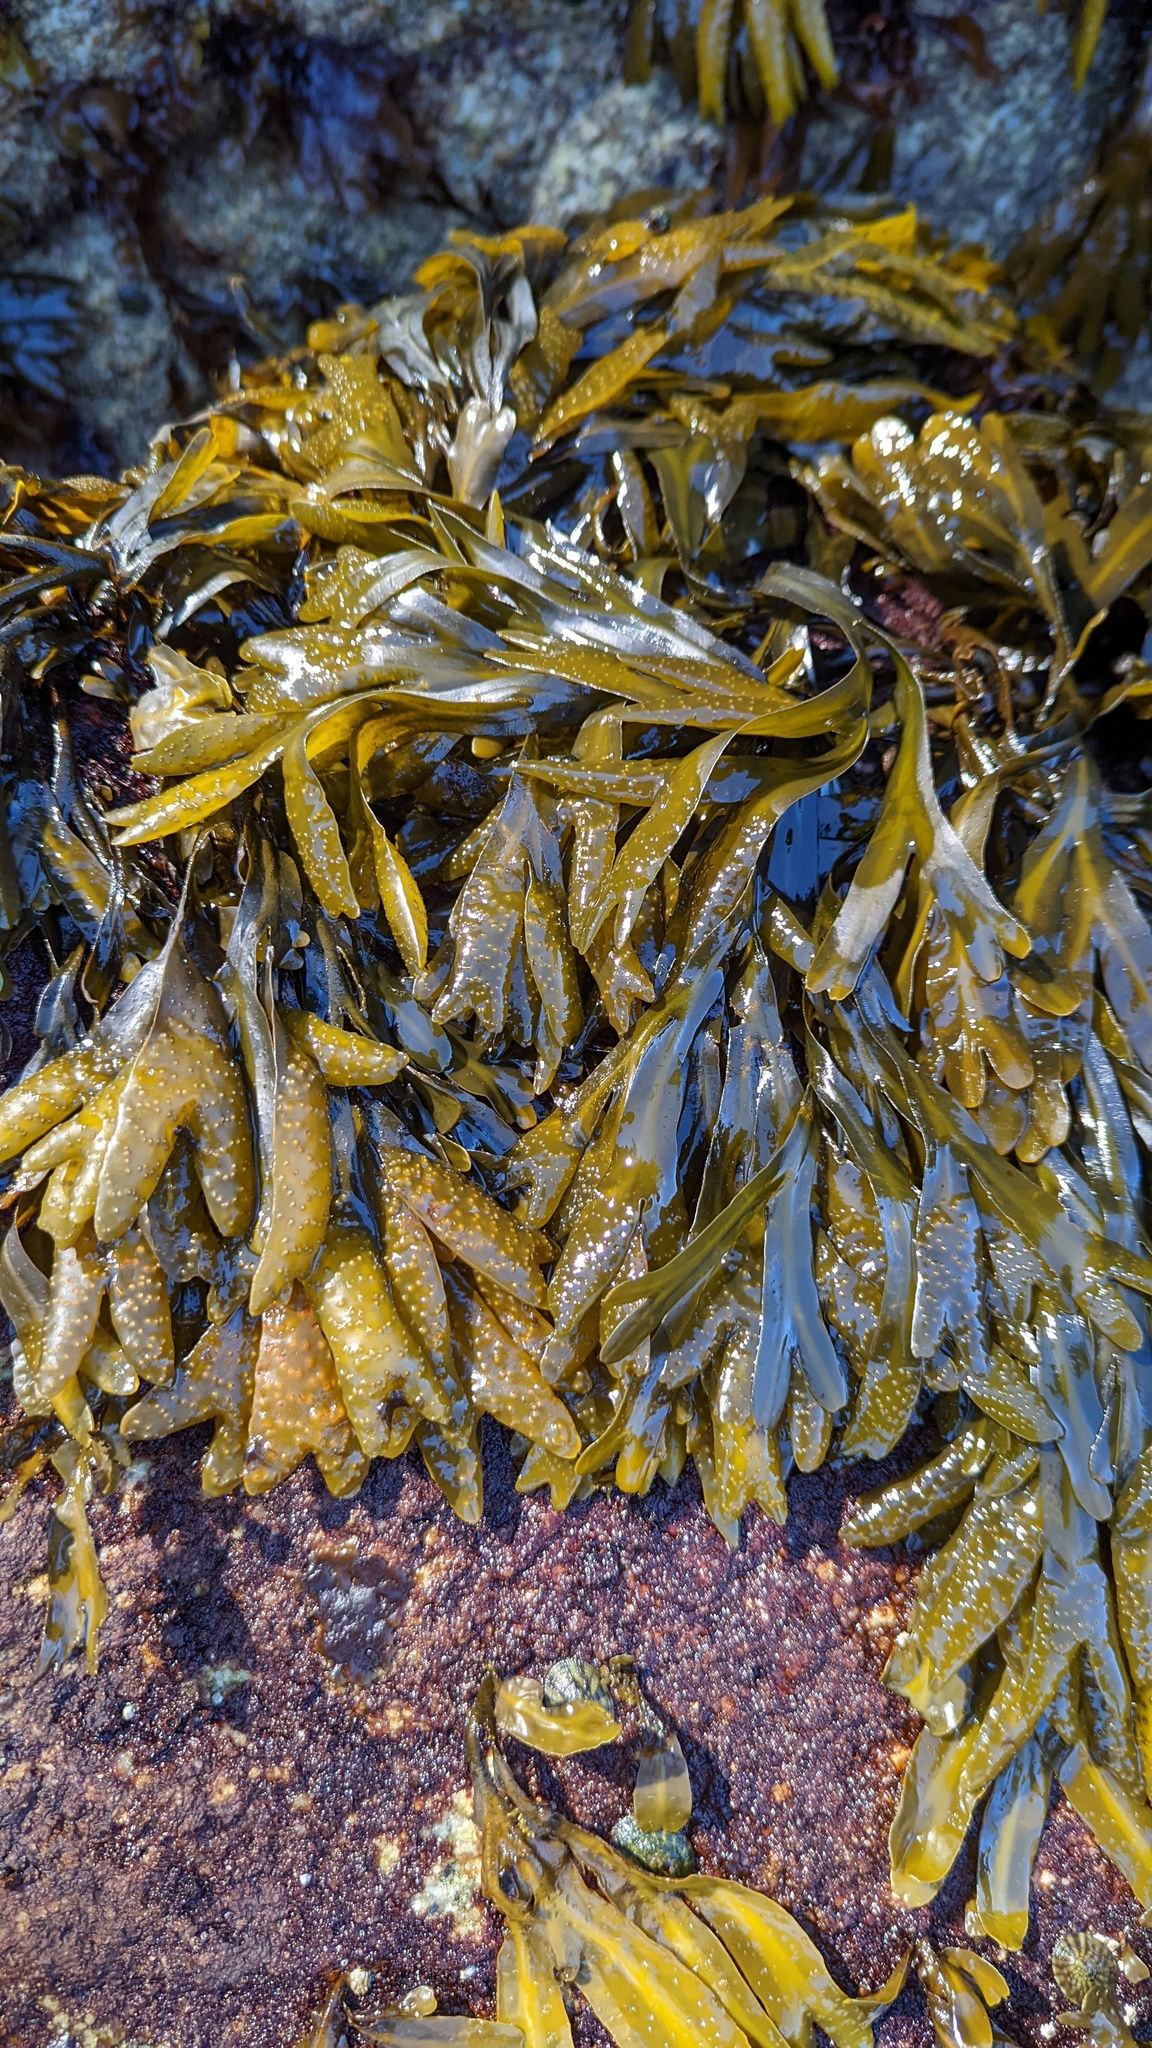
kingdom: Chromista
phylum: Ochrophyta
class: Phaeophyceae
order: Fucales
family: Fucaceae
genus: Fucus
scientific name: Fucus distichus
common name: Rockweed
